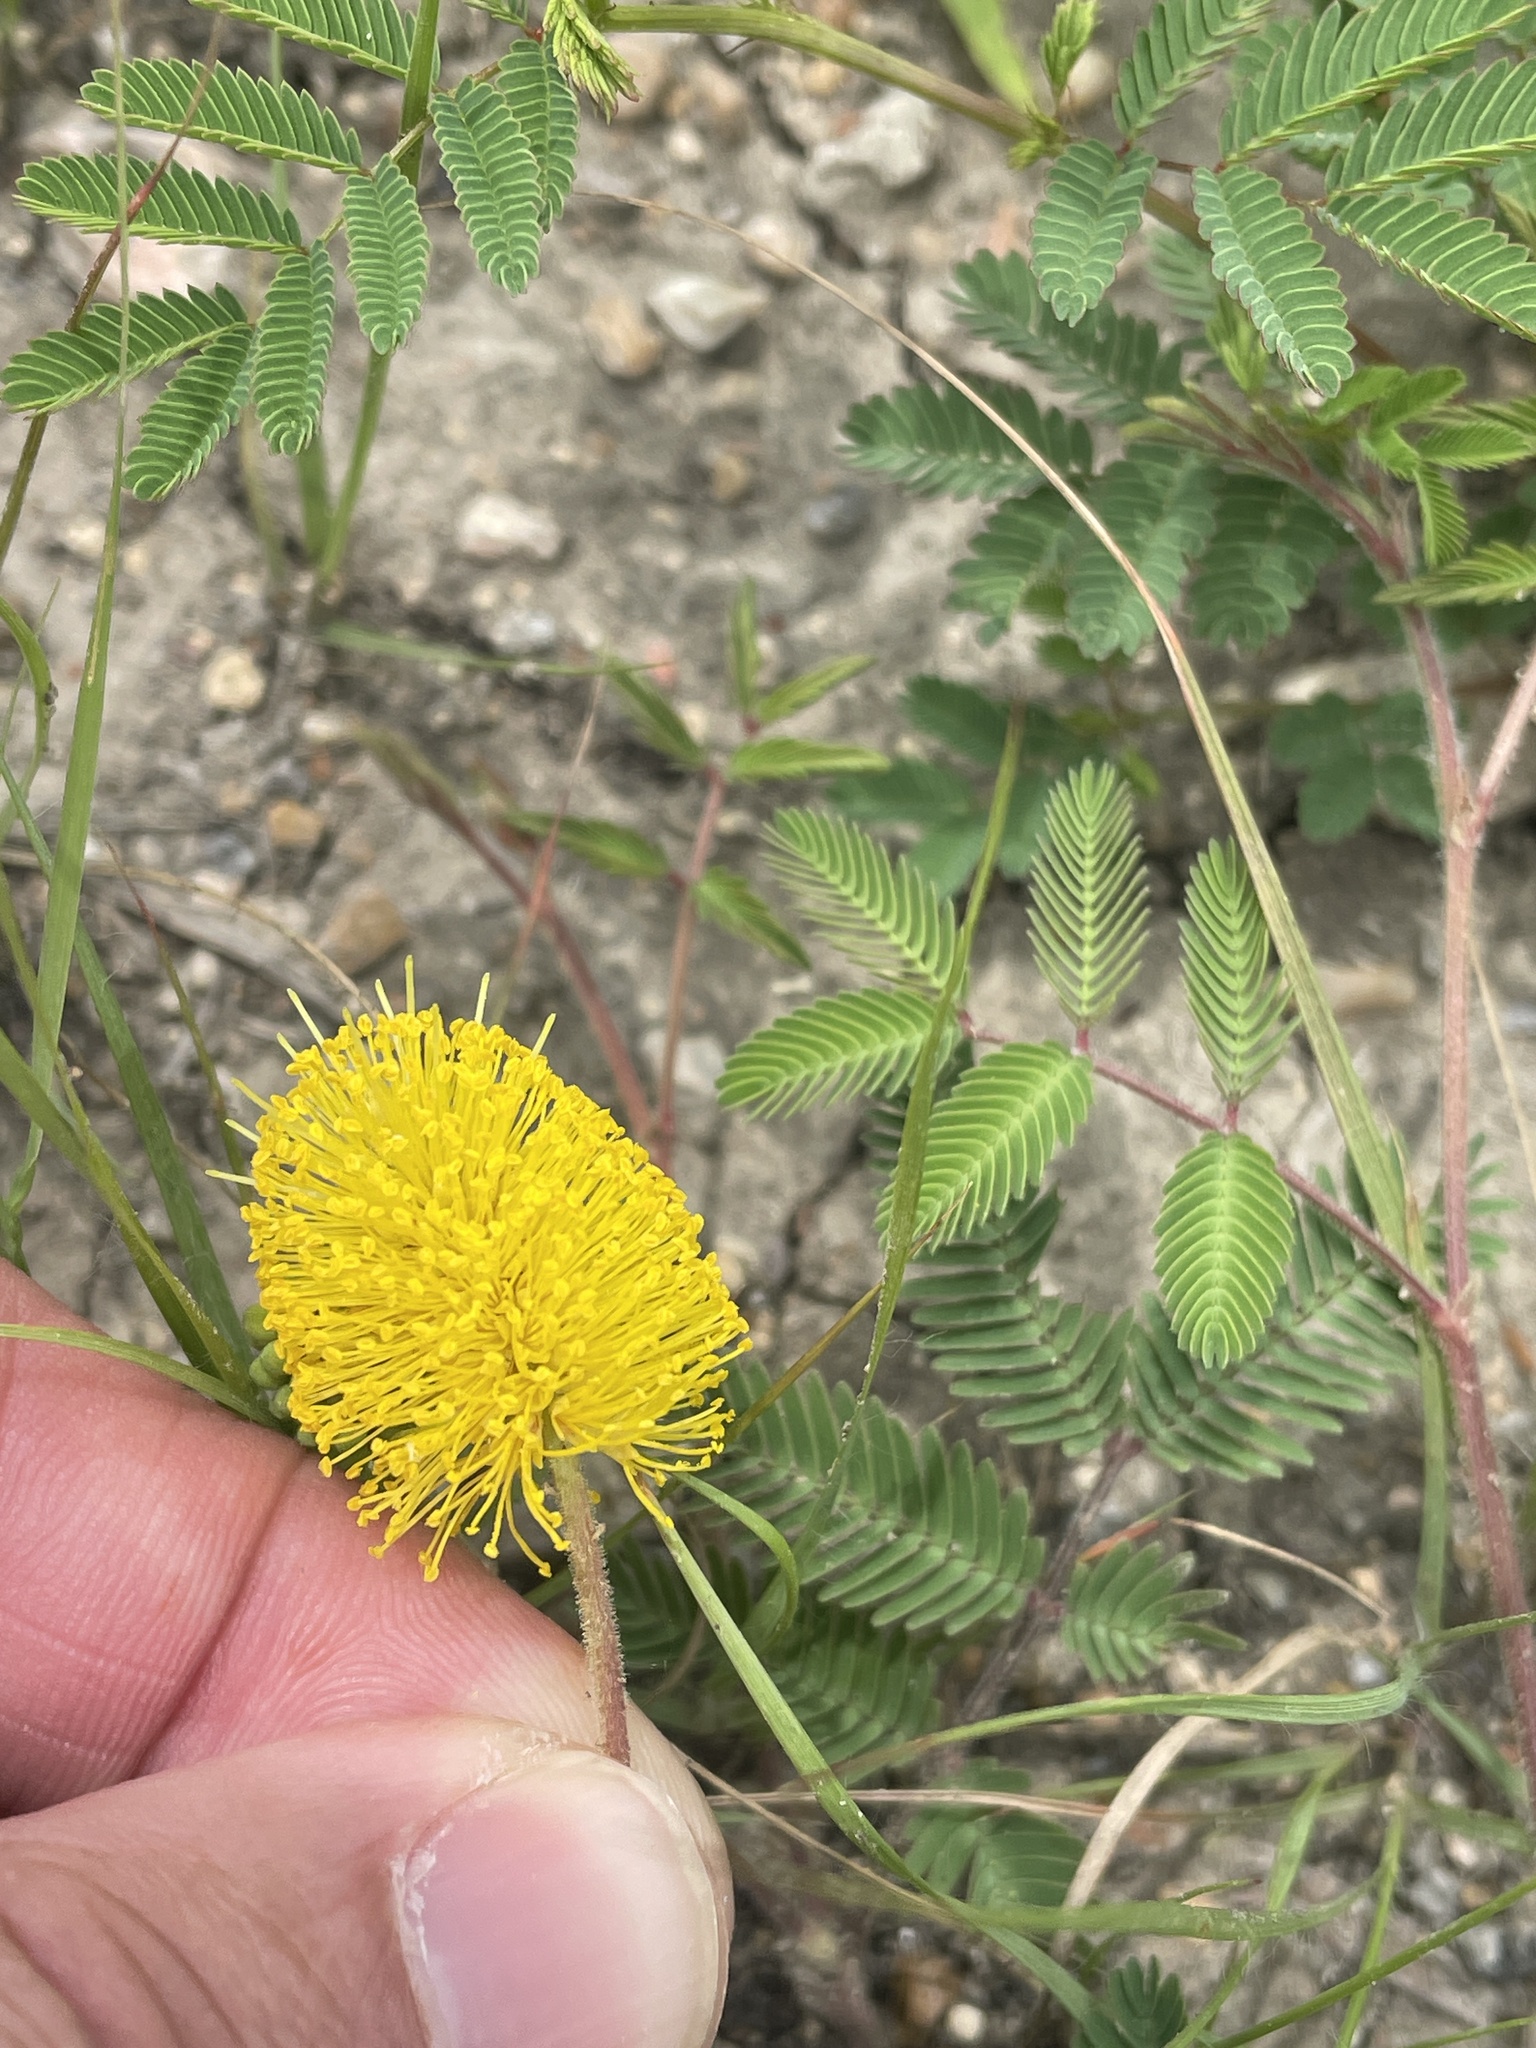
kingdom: Plantae
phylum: Tracheophyta
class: Magnoliopsida
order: Fabales
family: Fabaceae
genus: Neptunia
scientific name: Neptunia lutea
